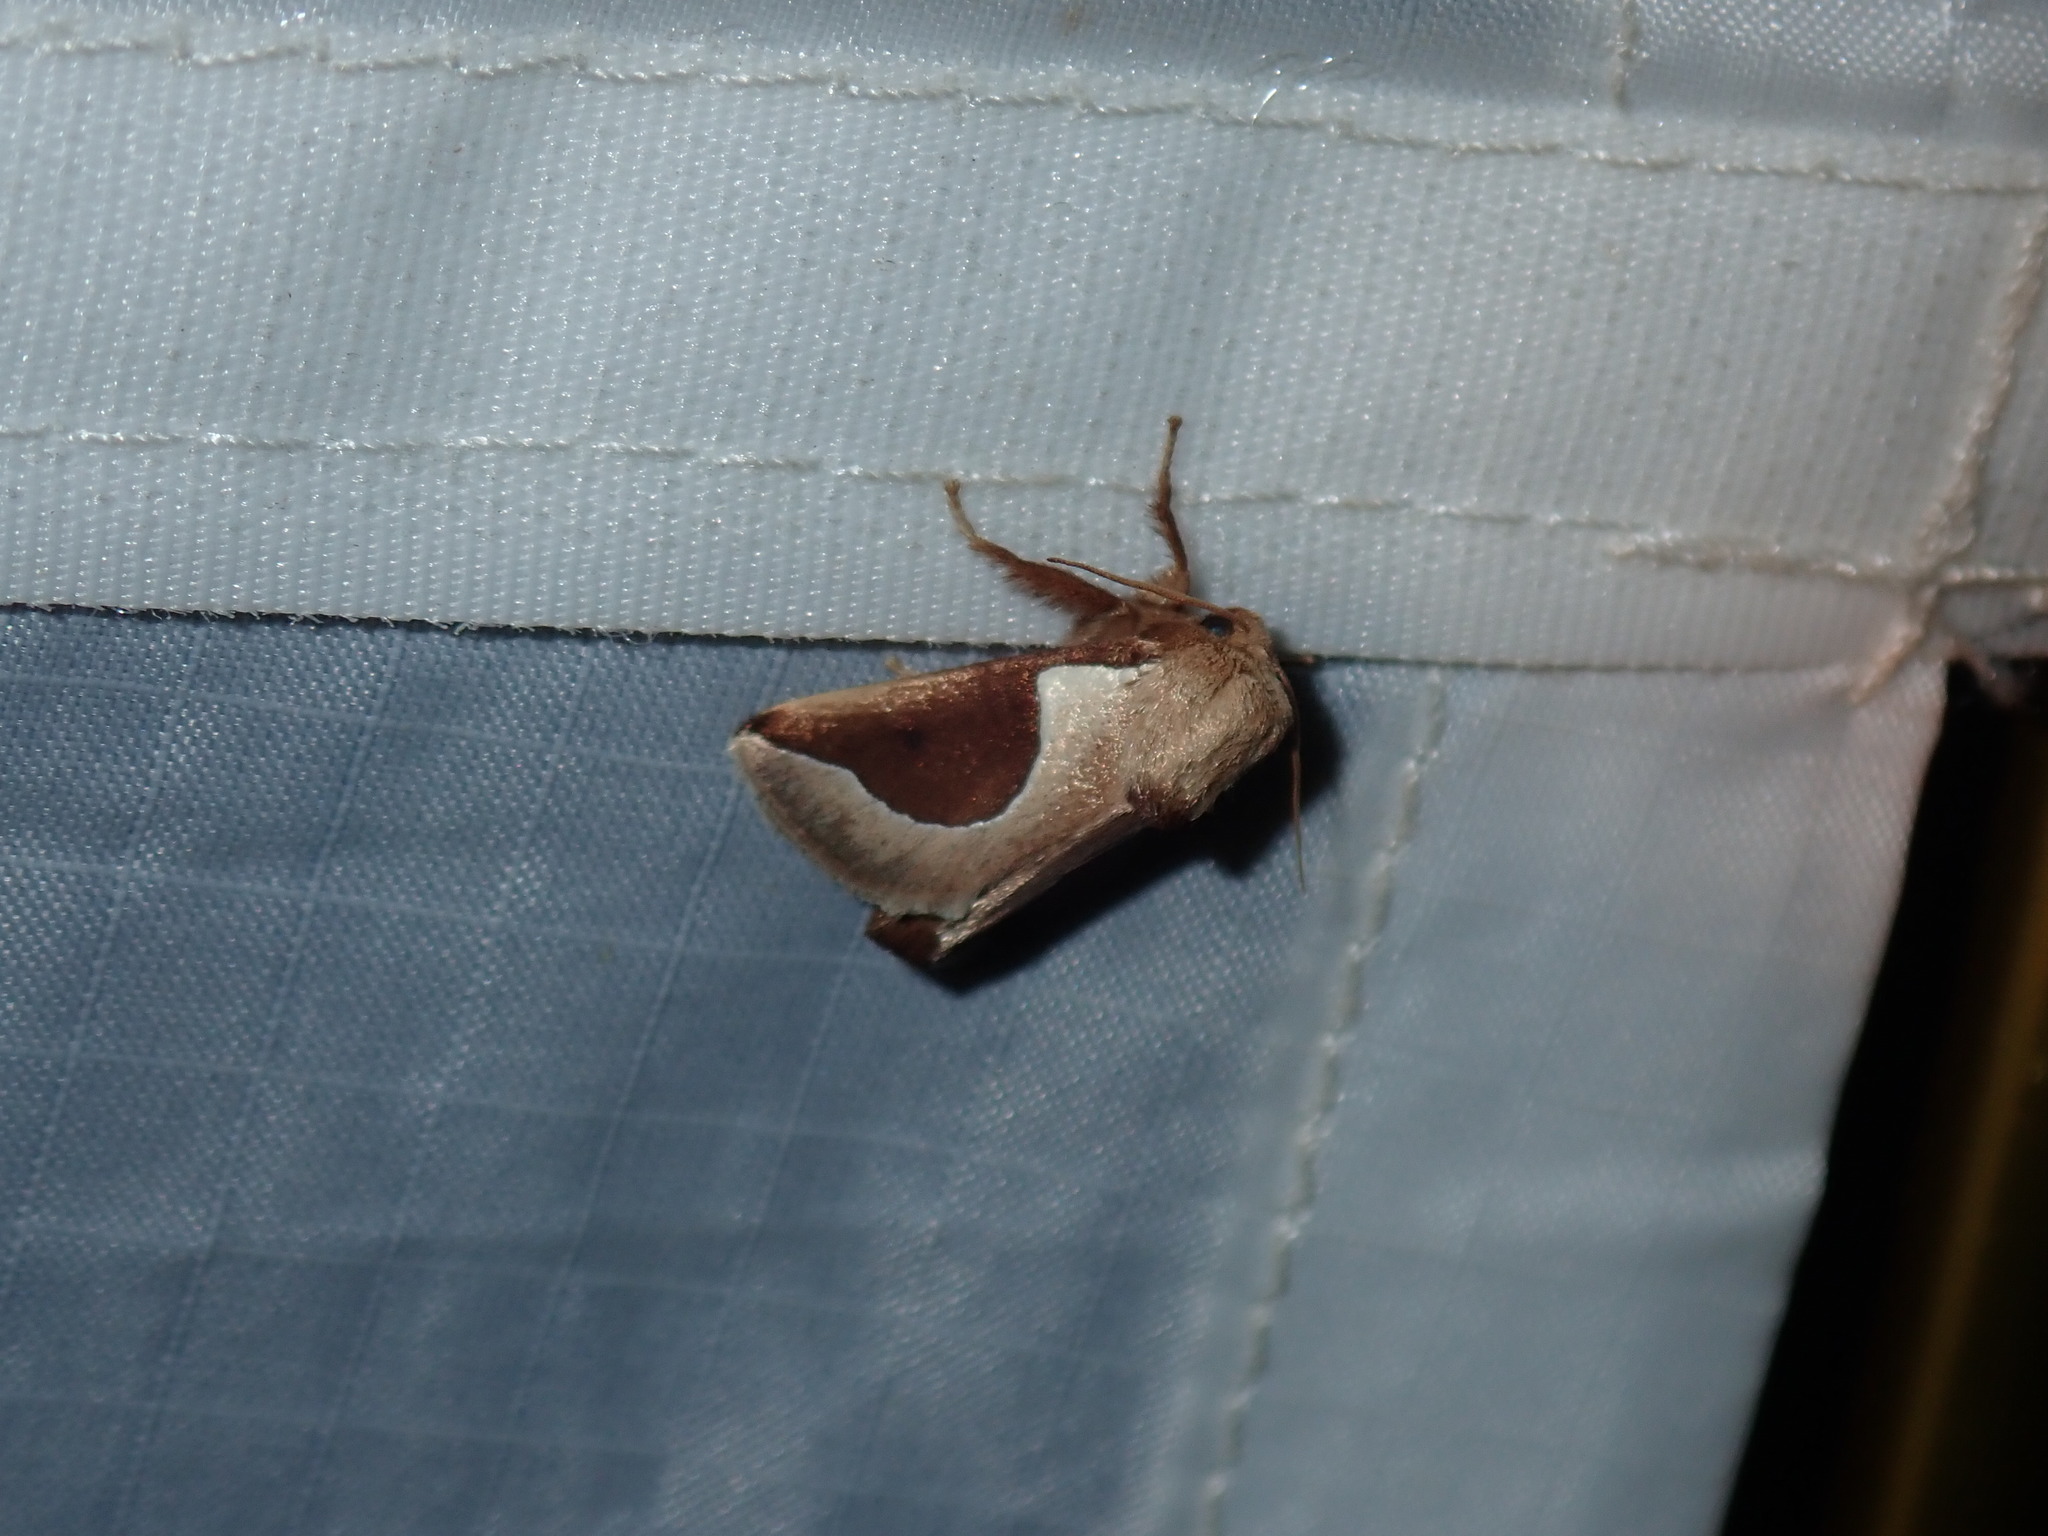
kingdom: Animalia
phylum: Arthropoda
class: Insecta
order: Lepidoptera
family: Limacodidae
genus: Prolimacodes
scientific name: Prolimacodes badia
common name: Skiff moth
